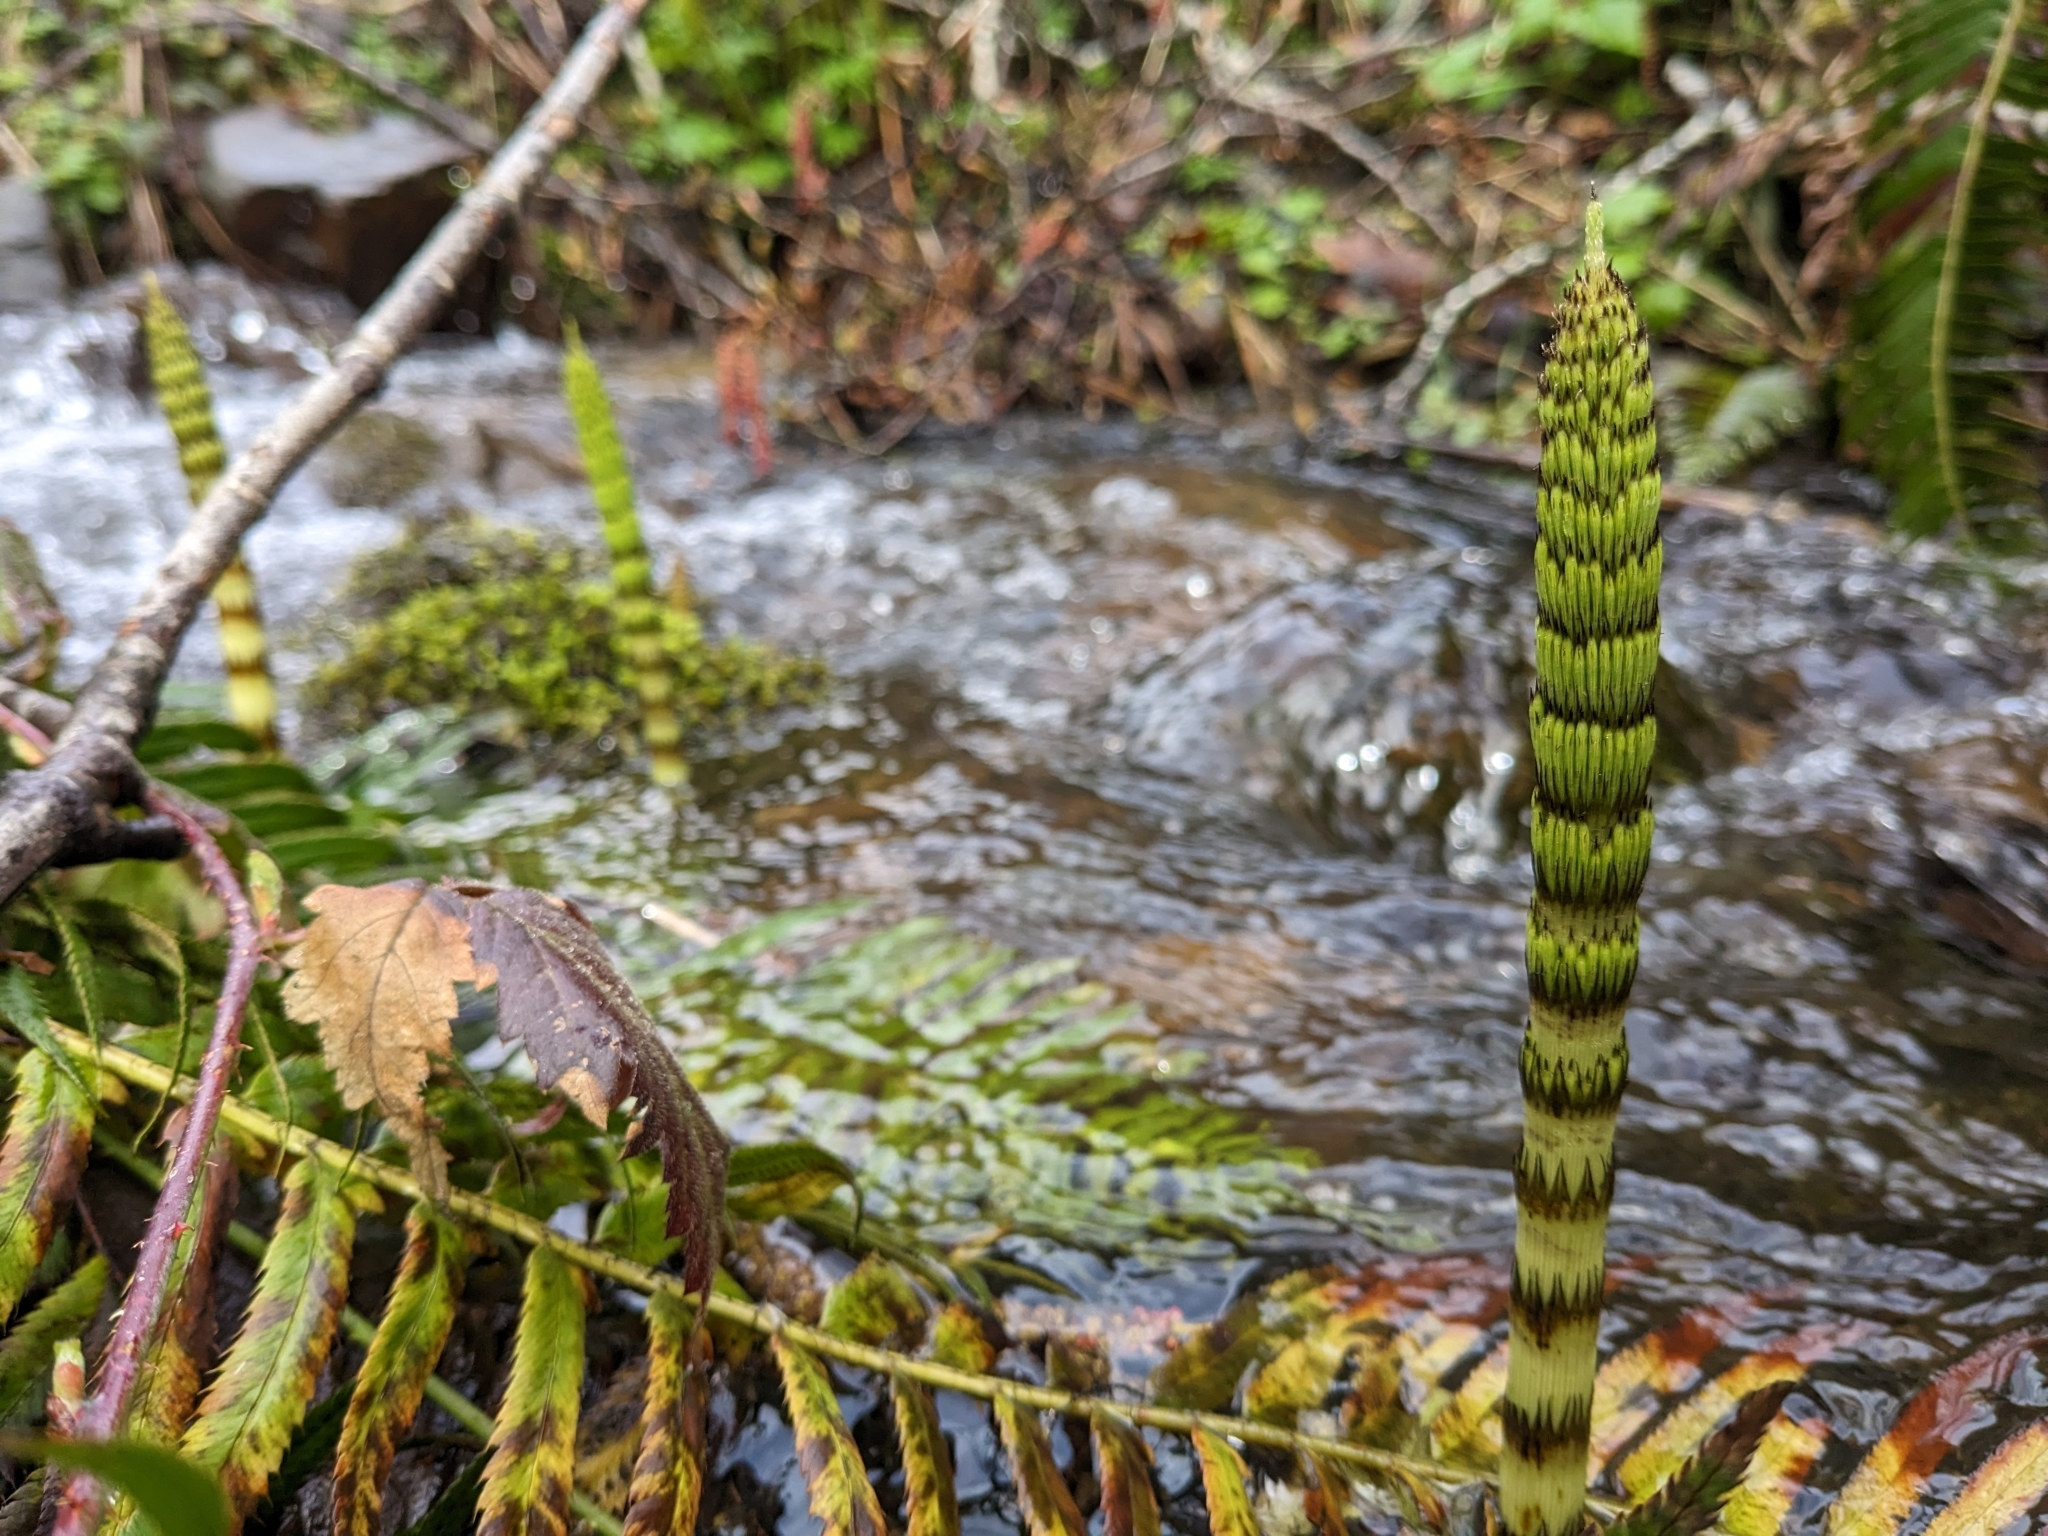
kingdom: Plantae
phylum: Tracheophyta
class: Polypodiopsida
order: Equisetales
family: Equisetaceae
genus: Equisetum
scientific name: Equisetum braunii
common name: Braun's horsetail
